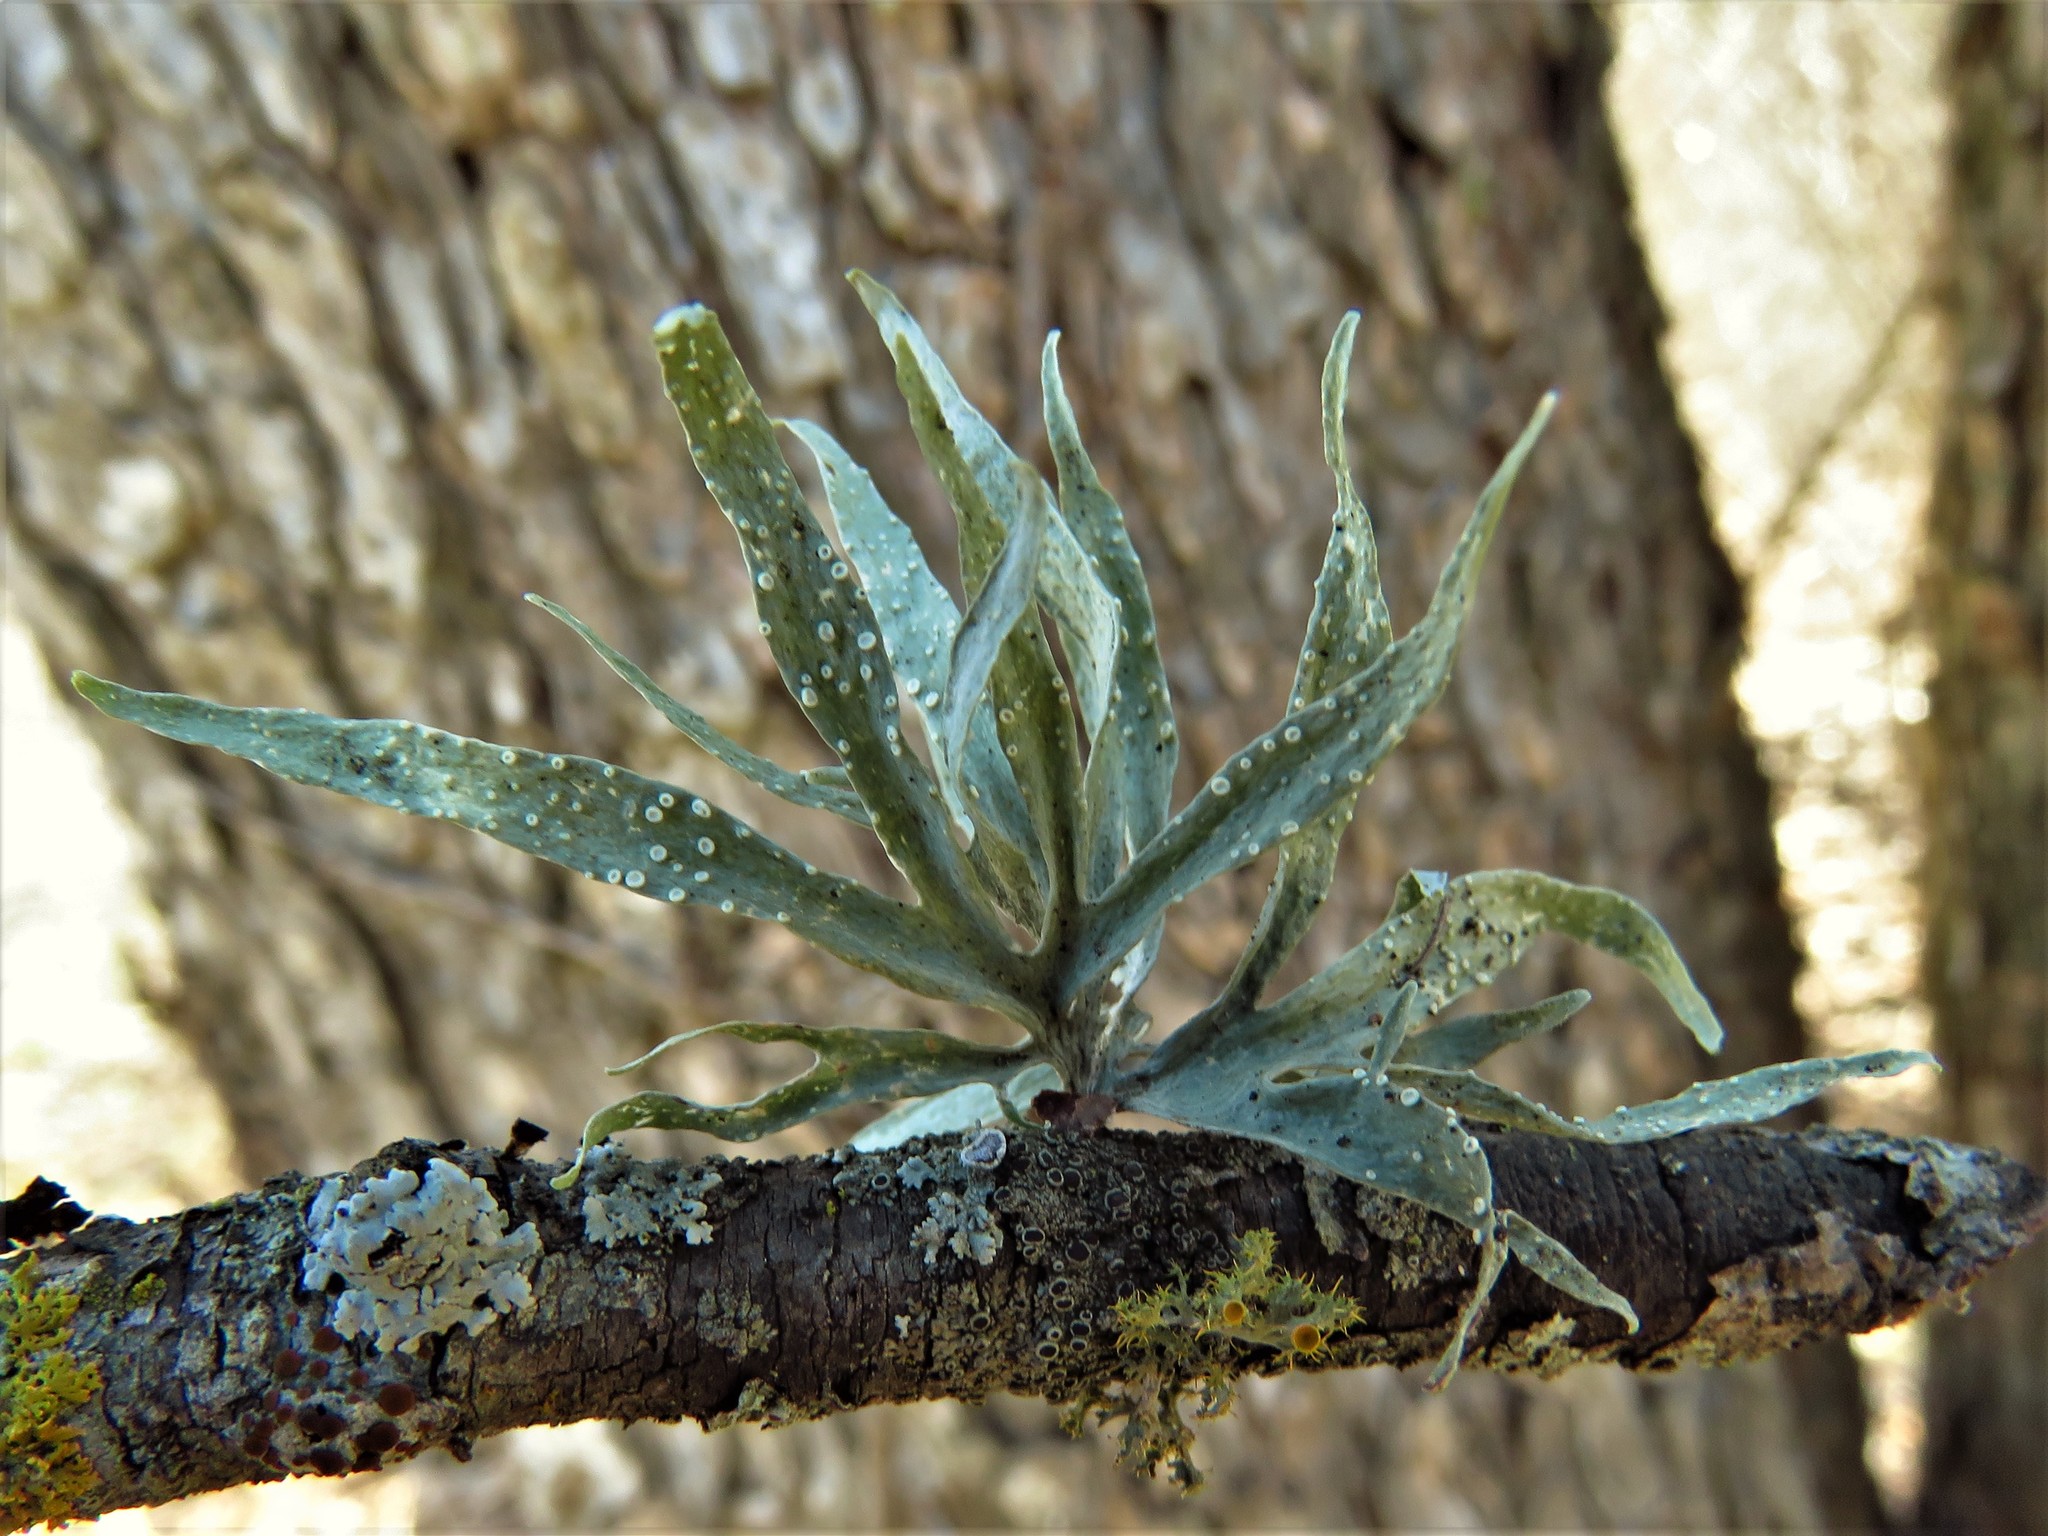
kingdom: Fungi
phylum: Ascomycota
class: Lecanoromycetes
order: Lecanorales
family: Ramalinaceae
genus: Ramalina
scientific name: Ramalina celastri
